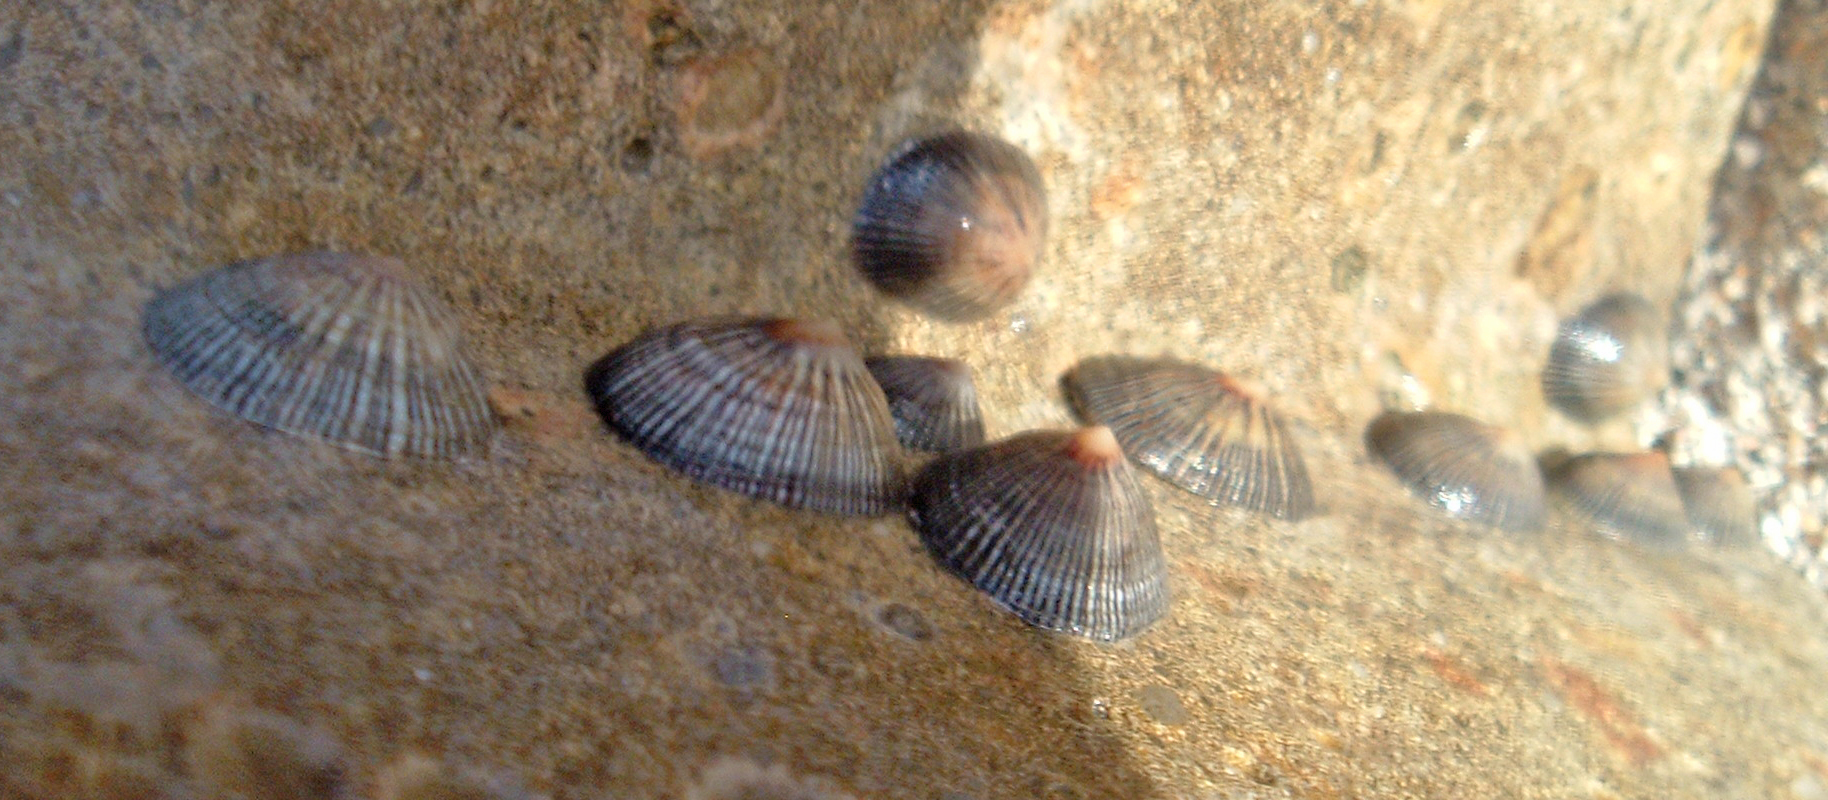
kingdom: Animalia
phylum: Mollusca
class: Gastropoda
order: Siphonariida
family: Siphonariidae
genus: Siphonaria
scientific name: Siphonaria naufragum
